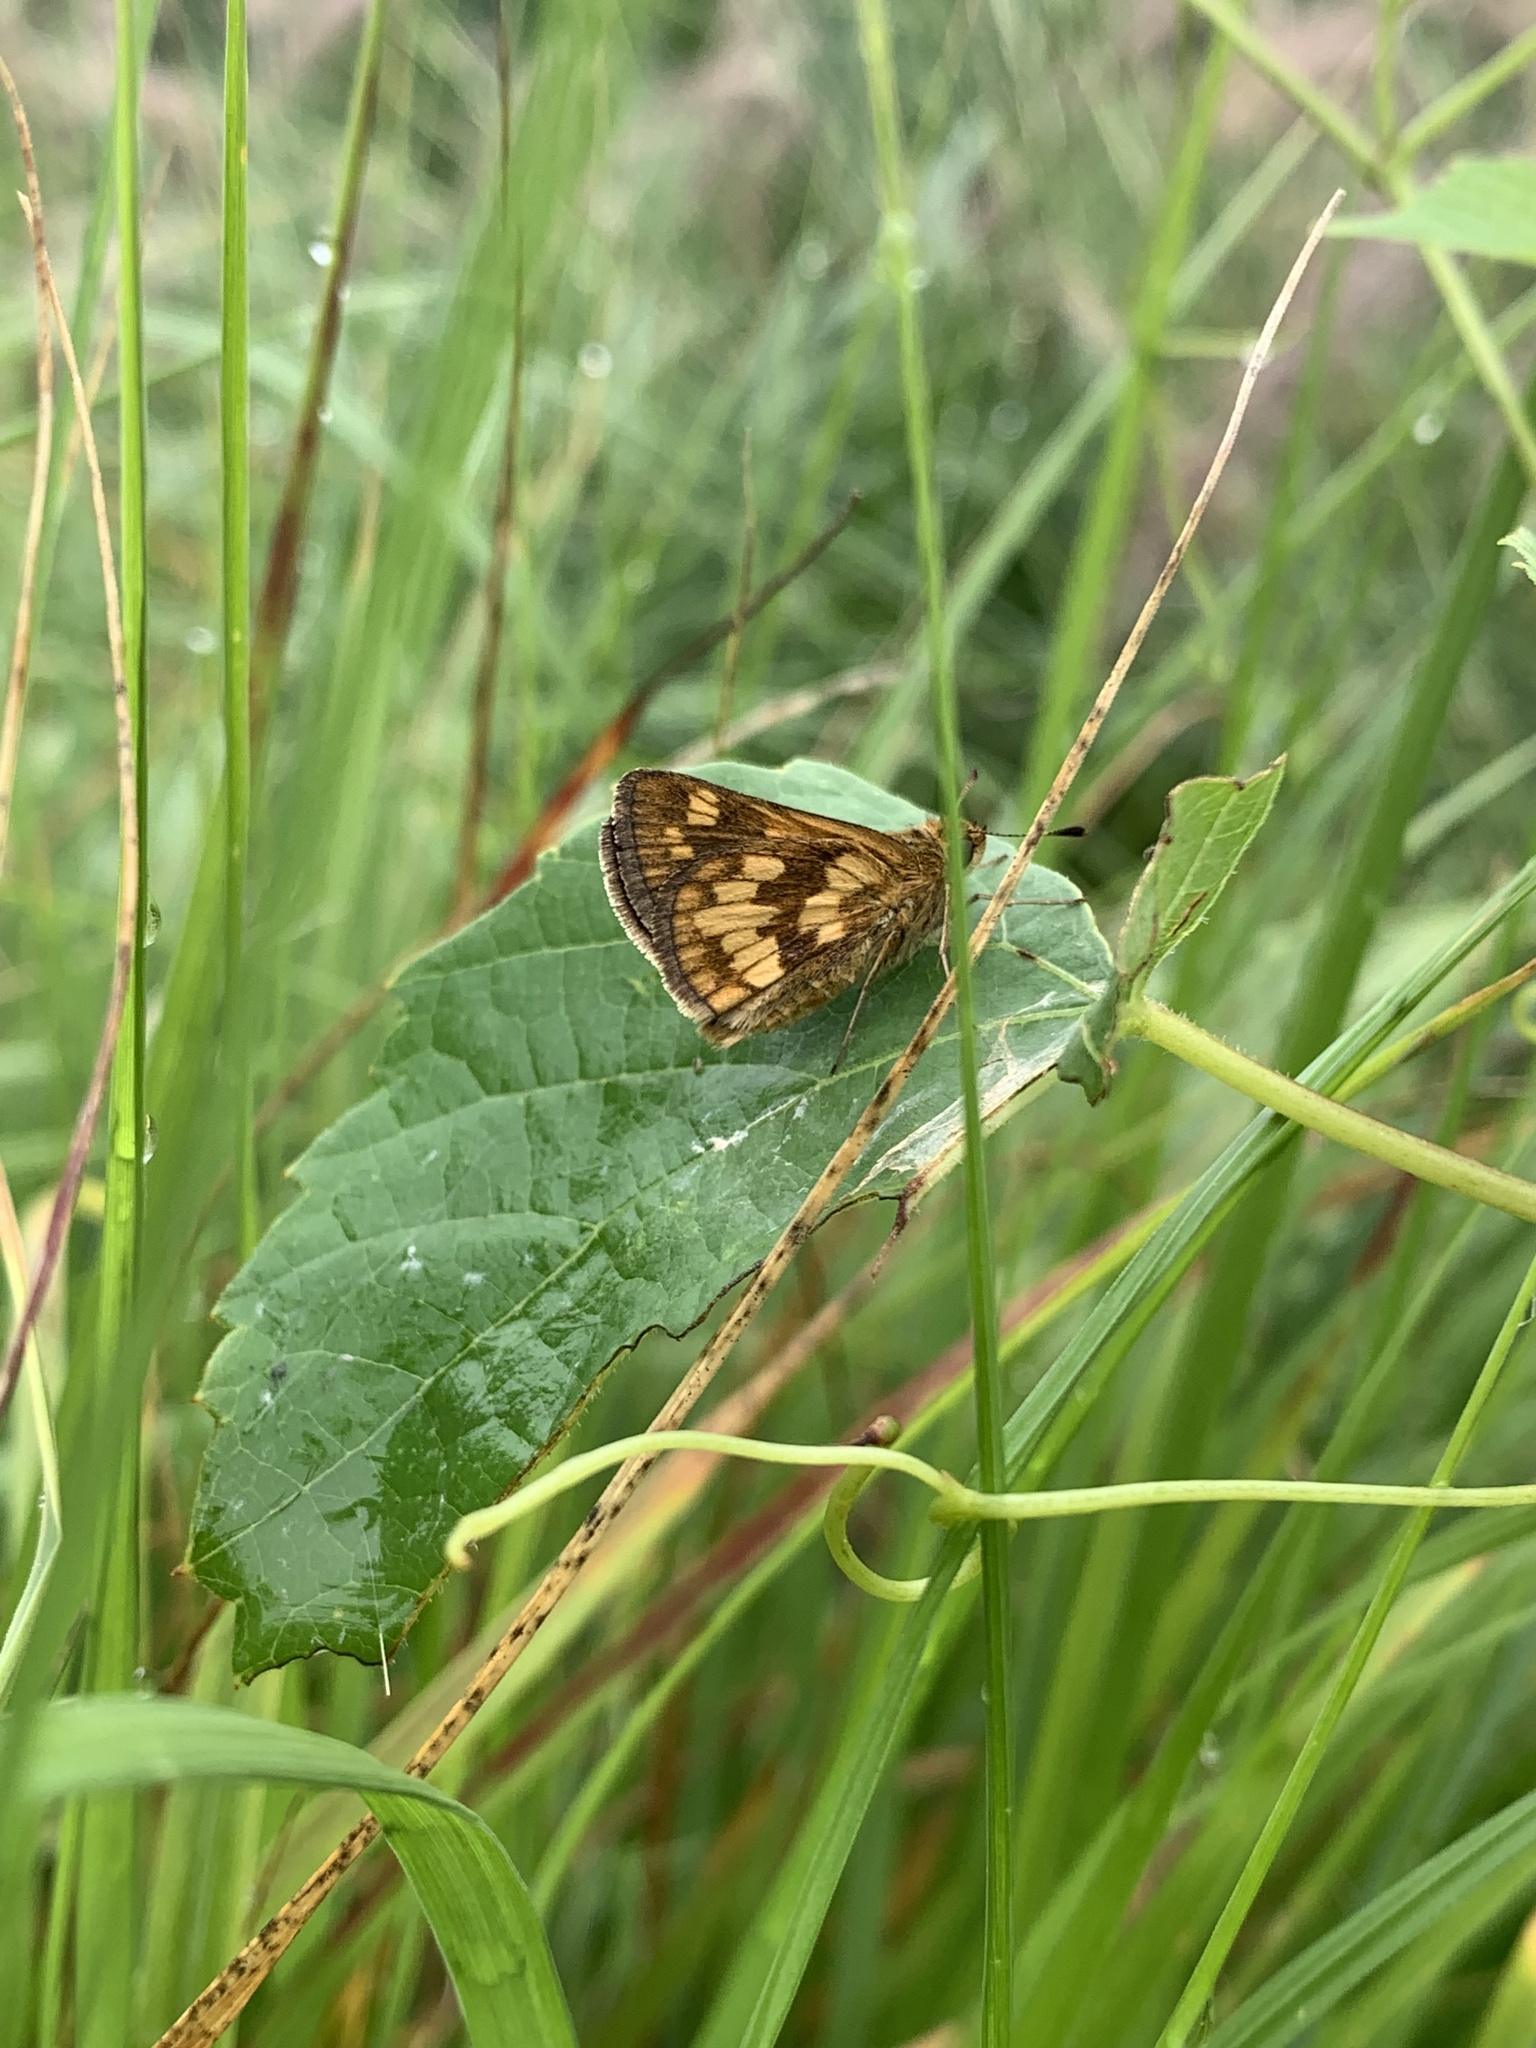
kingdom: Animalia
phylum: Arthropoda
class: Insecta
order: Lepidoptera
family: Hesperiidae
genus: Polites
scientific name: Polites coras
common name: Peck's skipper
